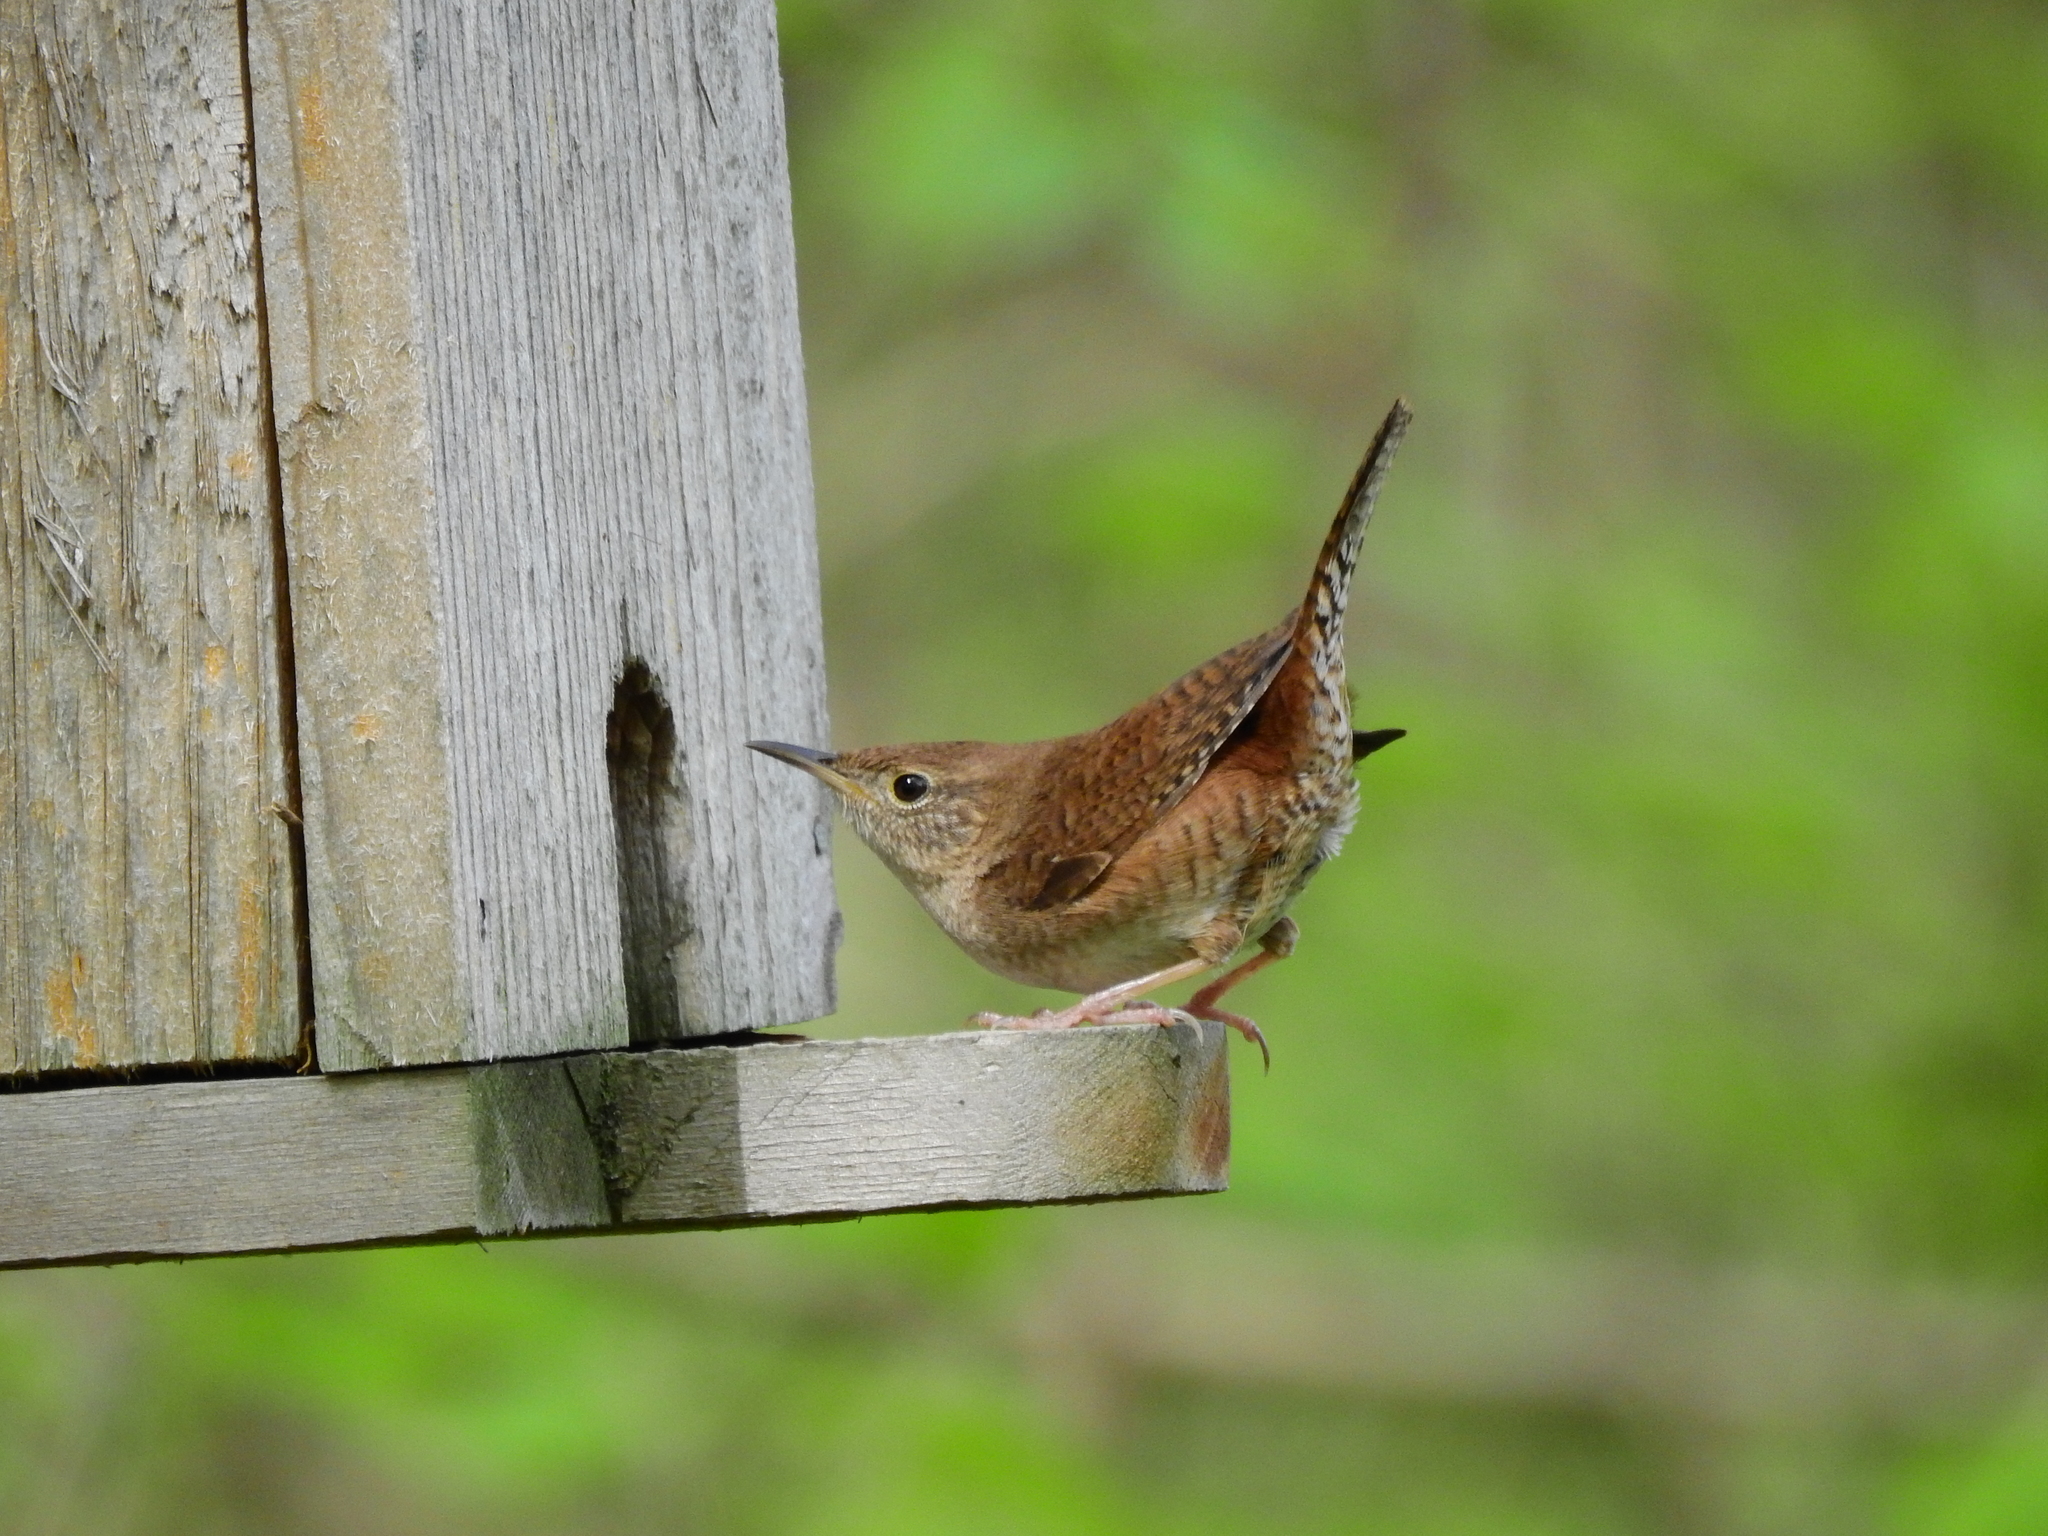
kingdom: Animalia
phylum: Chordata
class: Aves
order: Passeriformes
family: Troglodytidae
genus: Troglodytes
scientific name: Troglodytes aedon
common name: House wren
